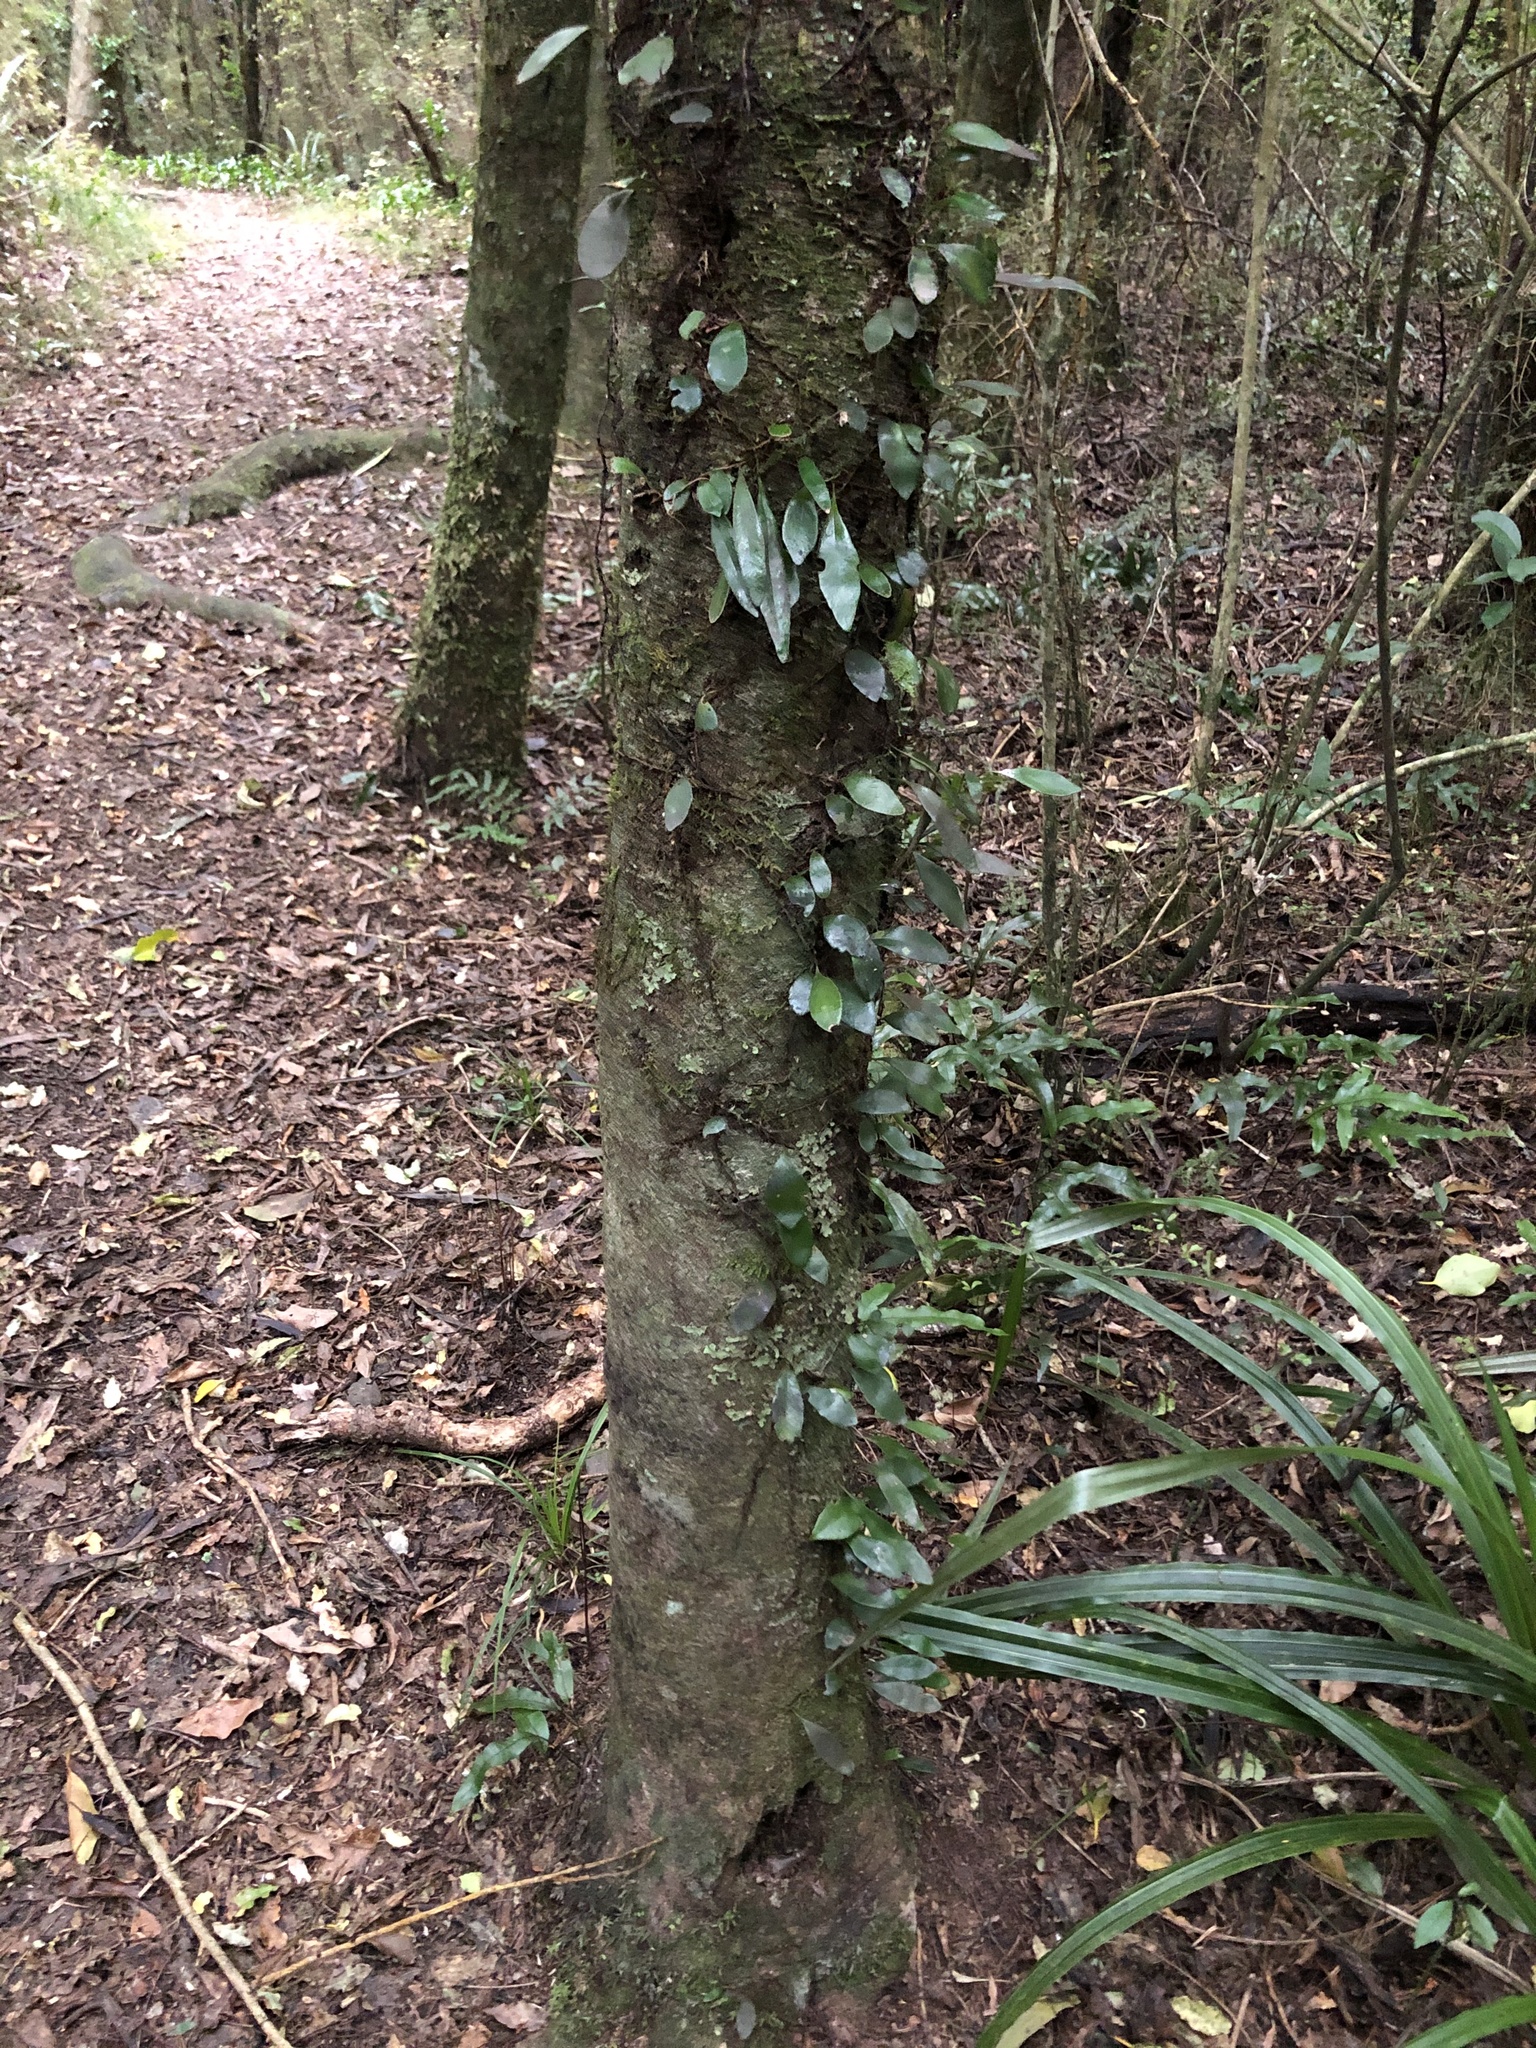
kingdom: Plantae
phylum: Tracheophyta
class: Polypodiopsida
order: Polypodiales
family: Polypodiaceae
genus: Pyrrosia
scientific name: Pyrrosia eleagnifolia
